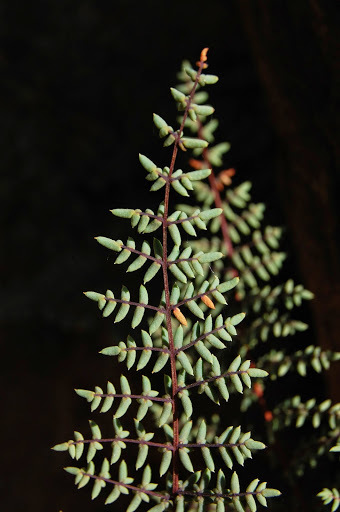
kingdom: Plantae
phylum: Tracheophyta
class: Polypodiopsida
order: Polypodiales
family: Pteridaceae
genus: Pellaea
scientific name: Pellaea mucronata
